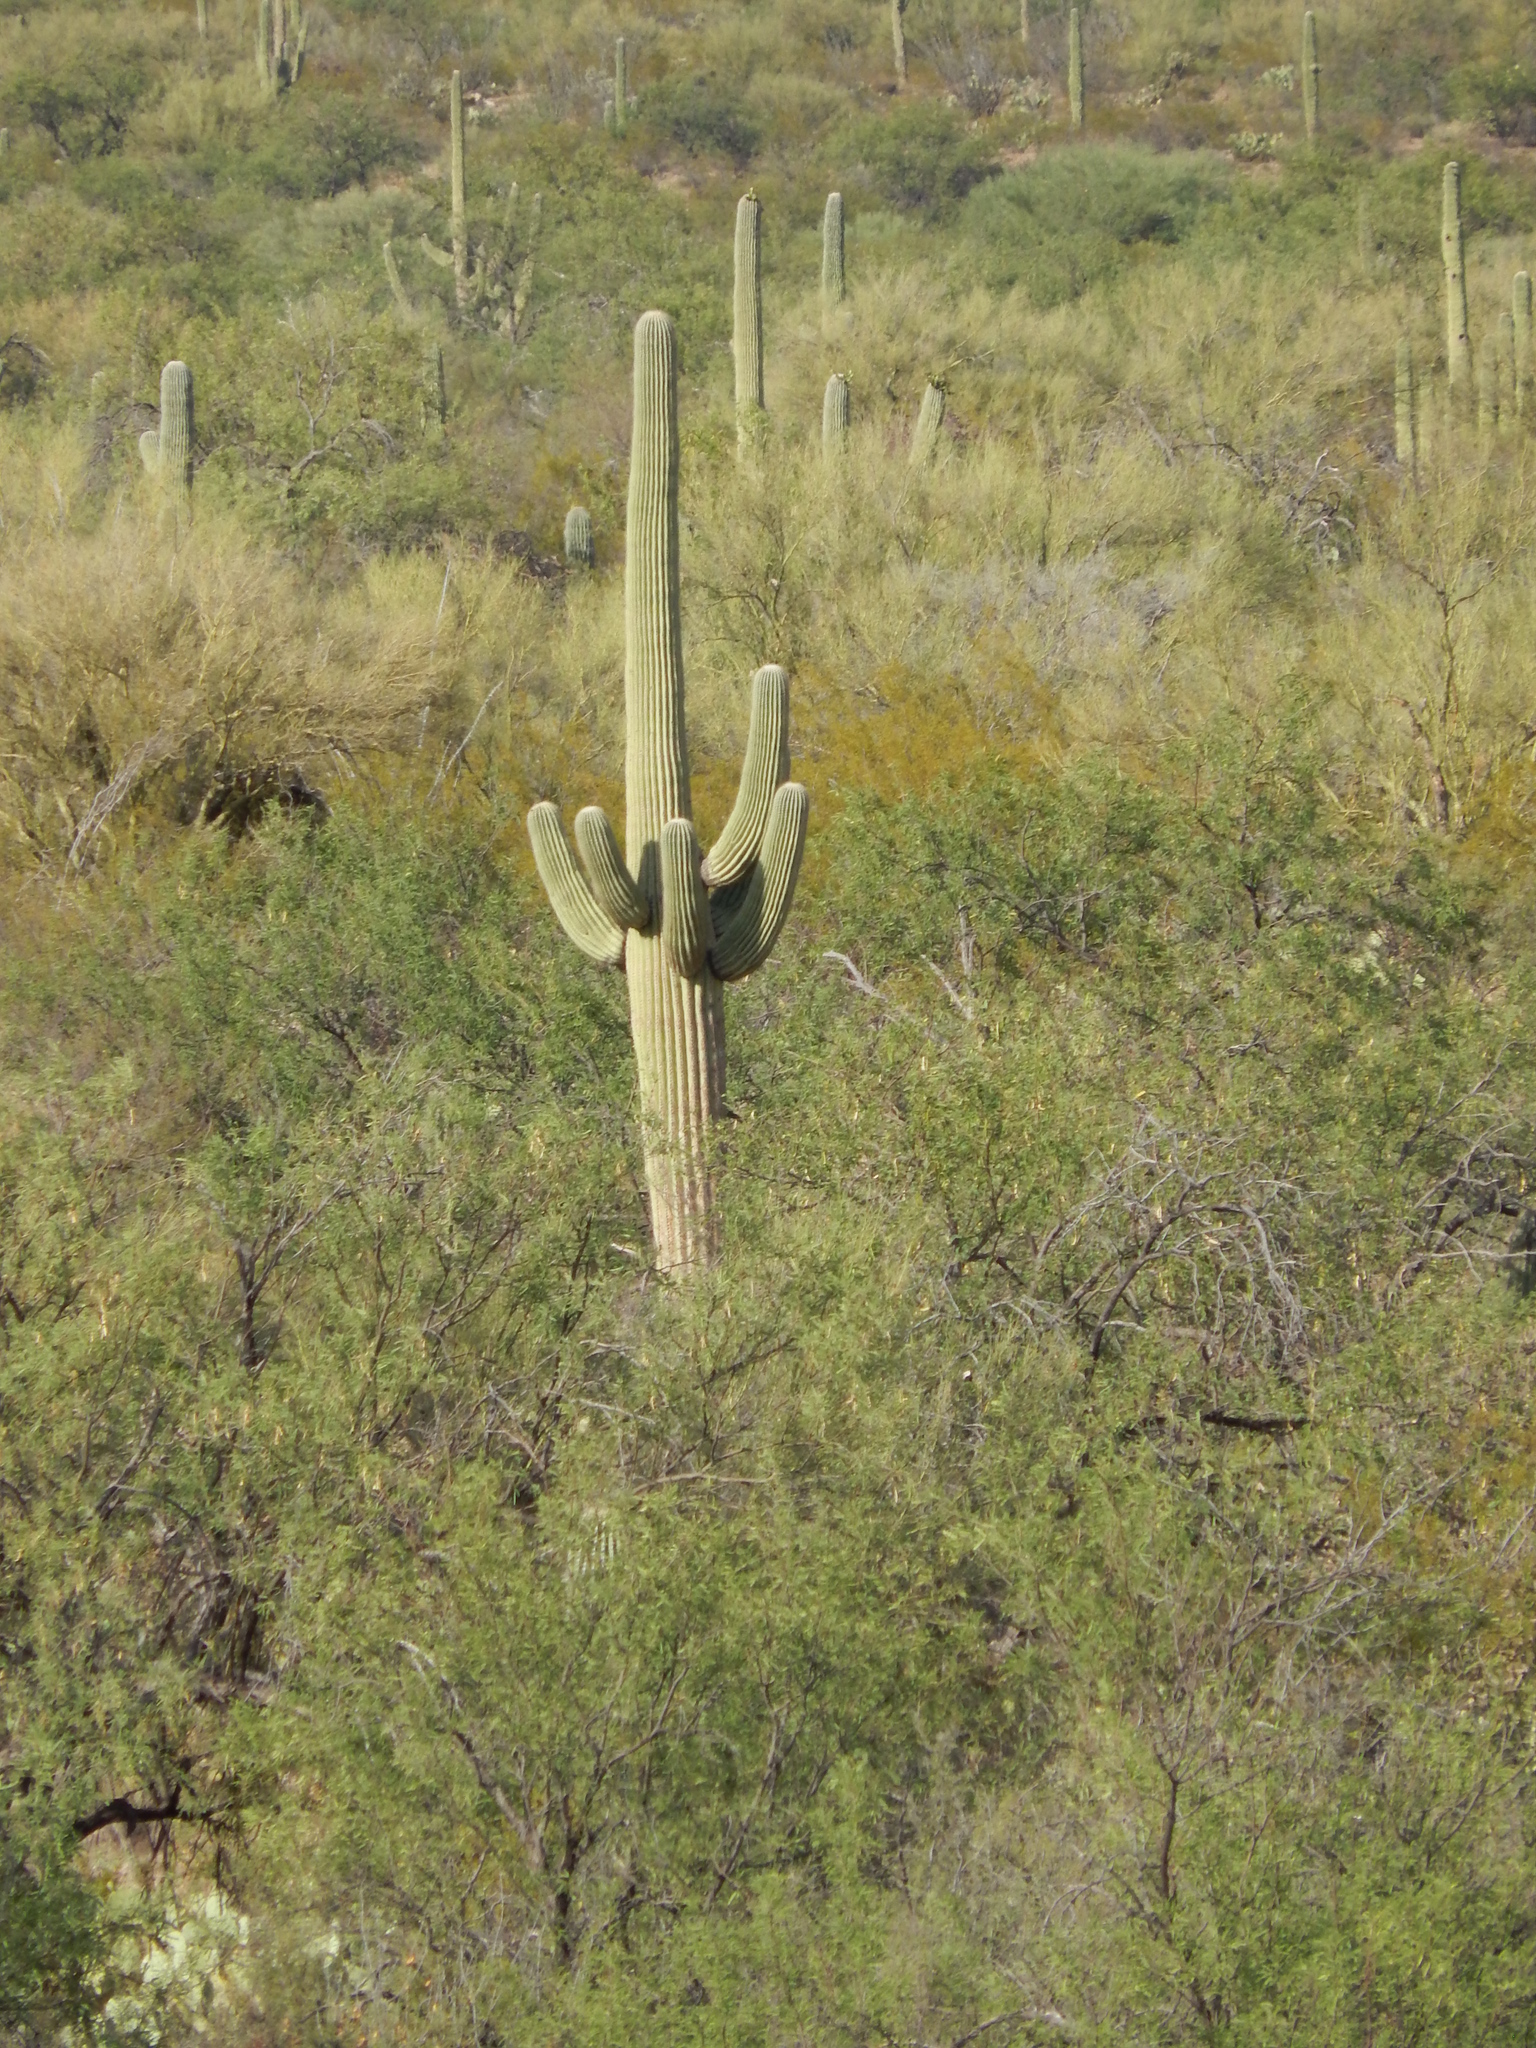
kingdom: Plantae
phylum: Tracheophyta
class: Magnoliopsida
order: Caryophyllales
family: Cactaceae
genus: Carnegiea
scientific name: Carnegiea gigantea
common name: Saguaro
